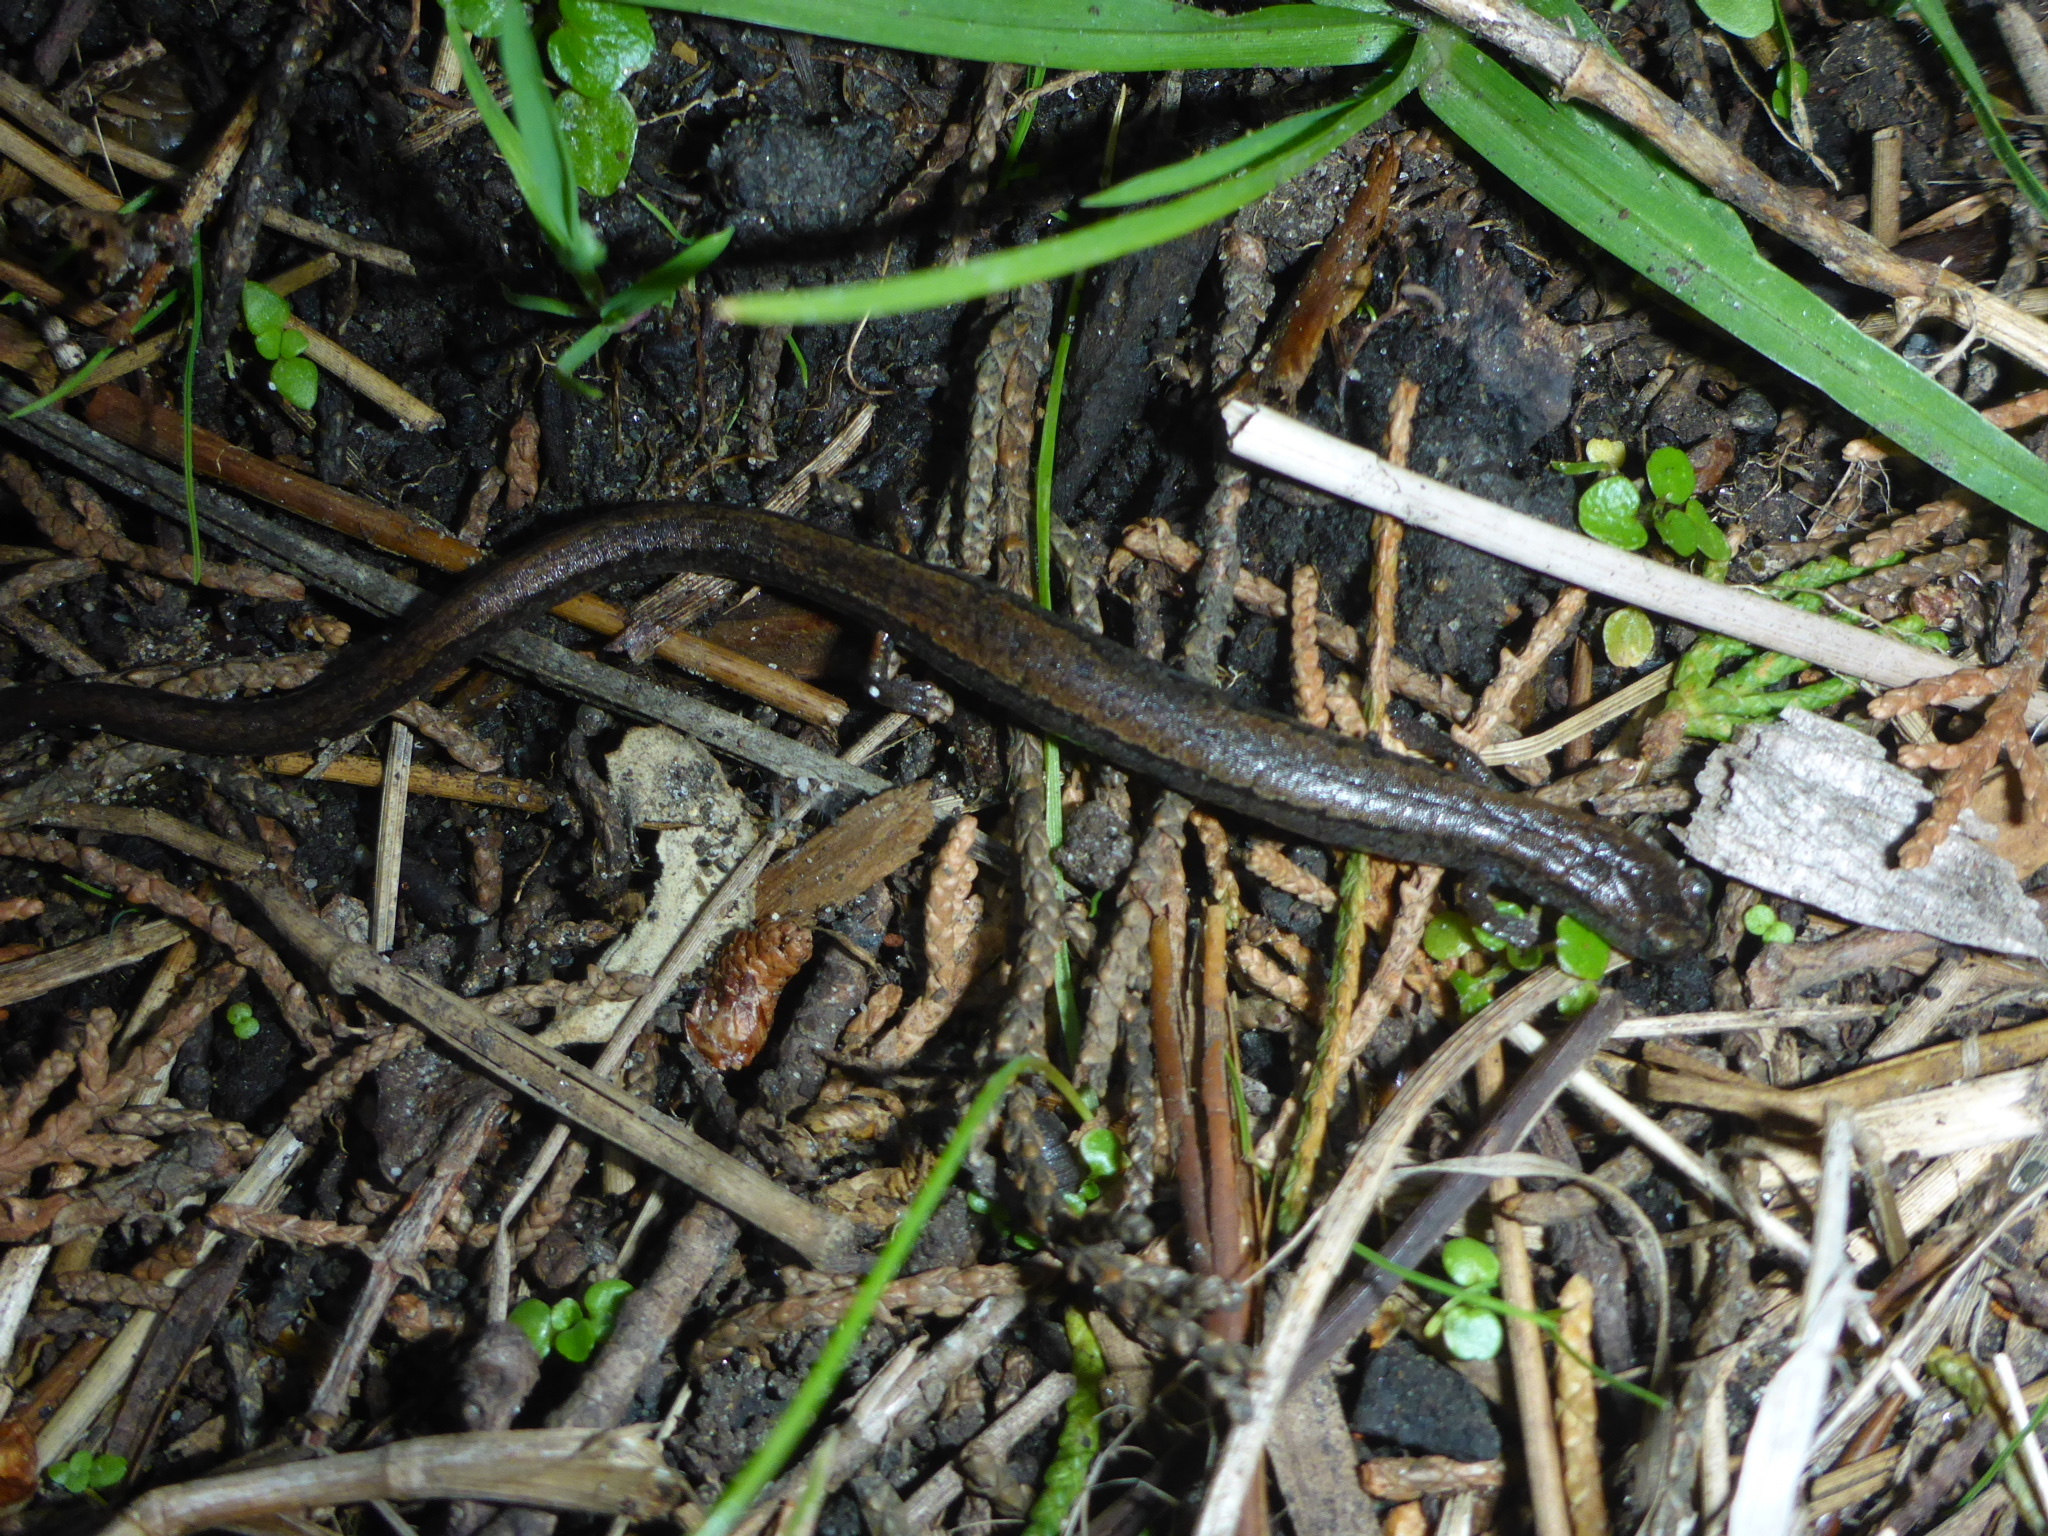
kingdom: Animalia
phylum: Chordata
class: Amphibia
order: Caudata
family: Plethodontidae
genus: Batrachoseps
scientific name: Batrachoseps attenuatus
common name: California slender salamander
